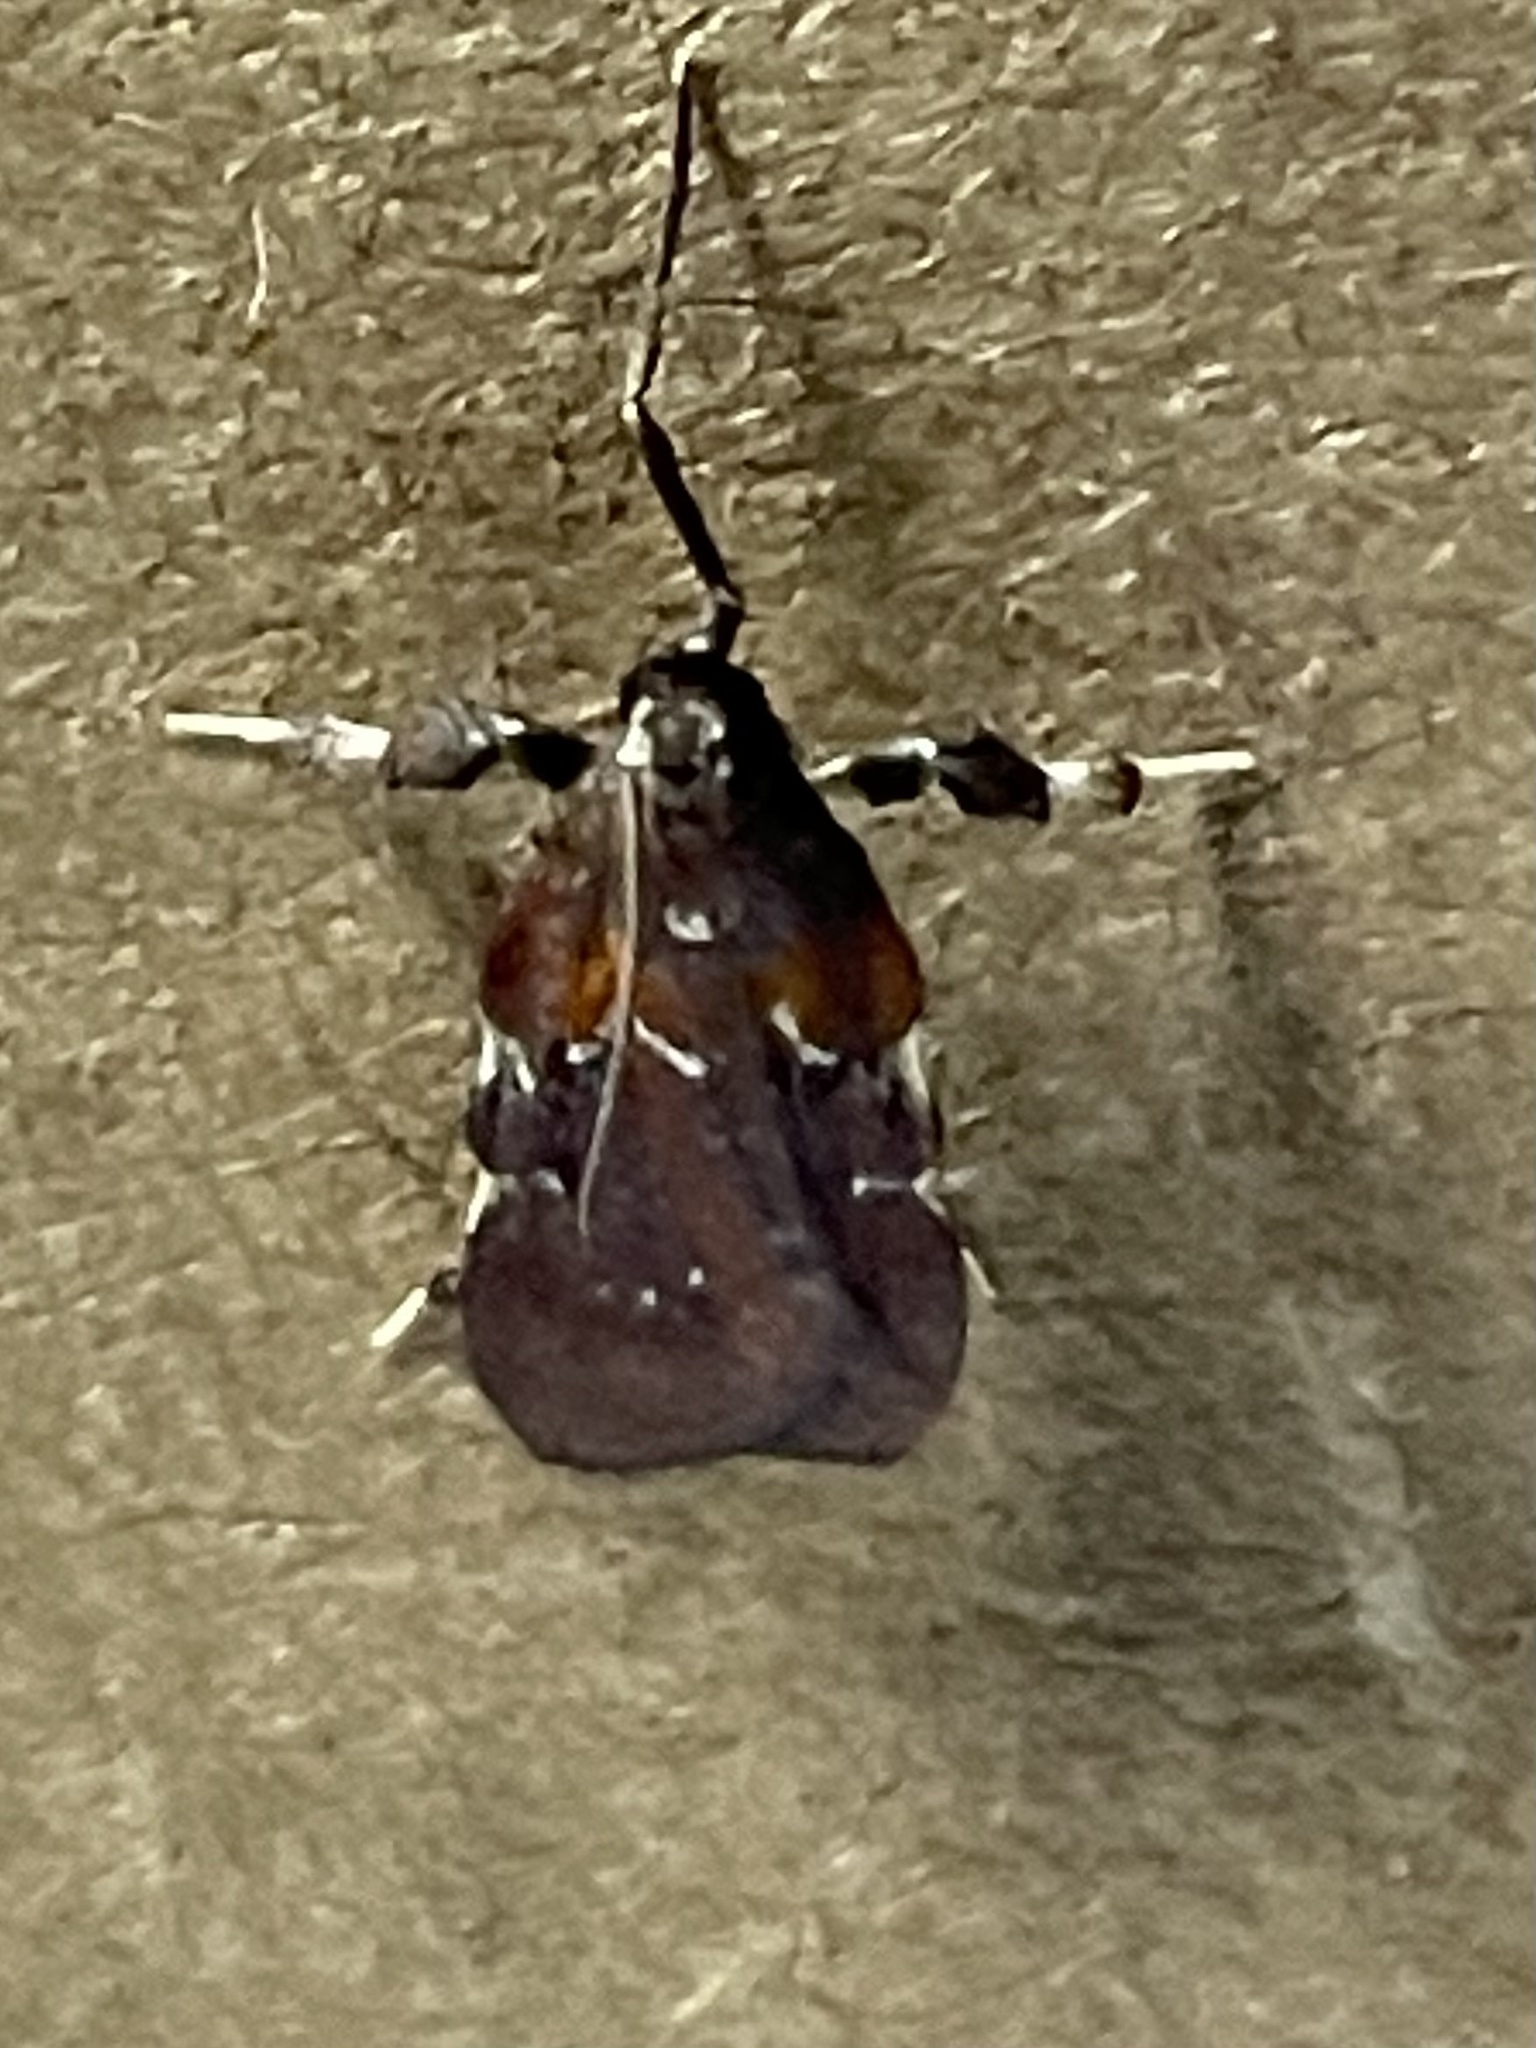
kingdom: Animalia
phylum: Arthropoda
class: Insecta
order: Lepidoptera
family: Pyralidae
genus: Galasa
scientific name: Galasa nigrinodis
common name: Boxwood leaftier moth
